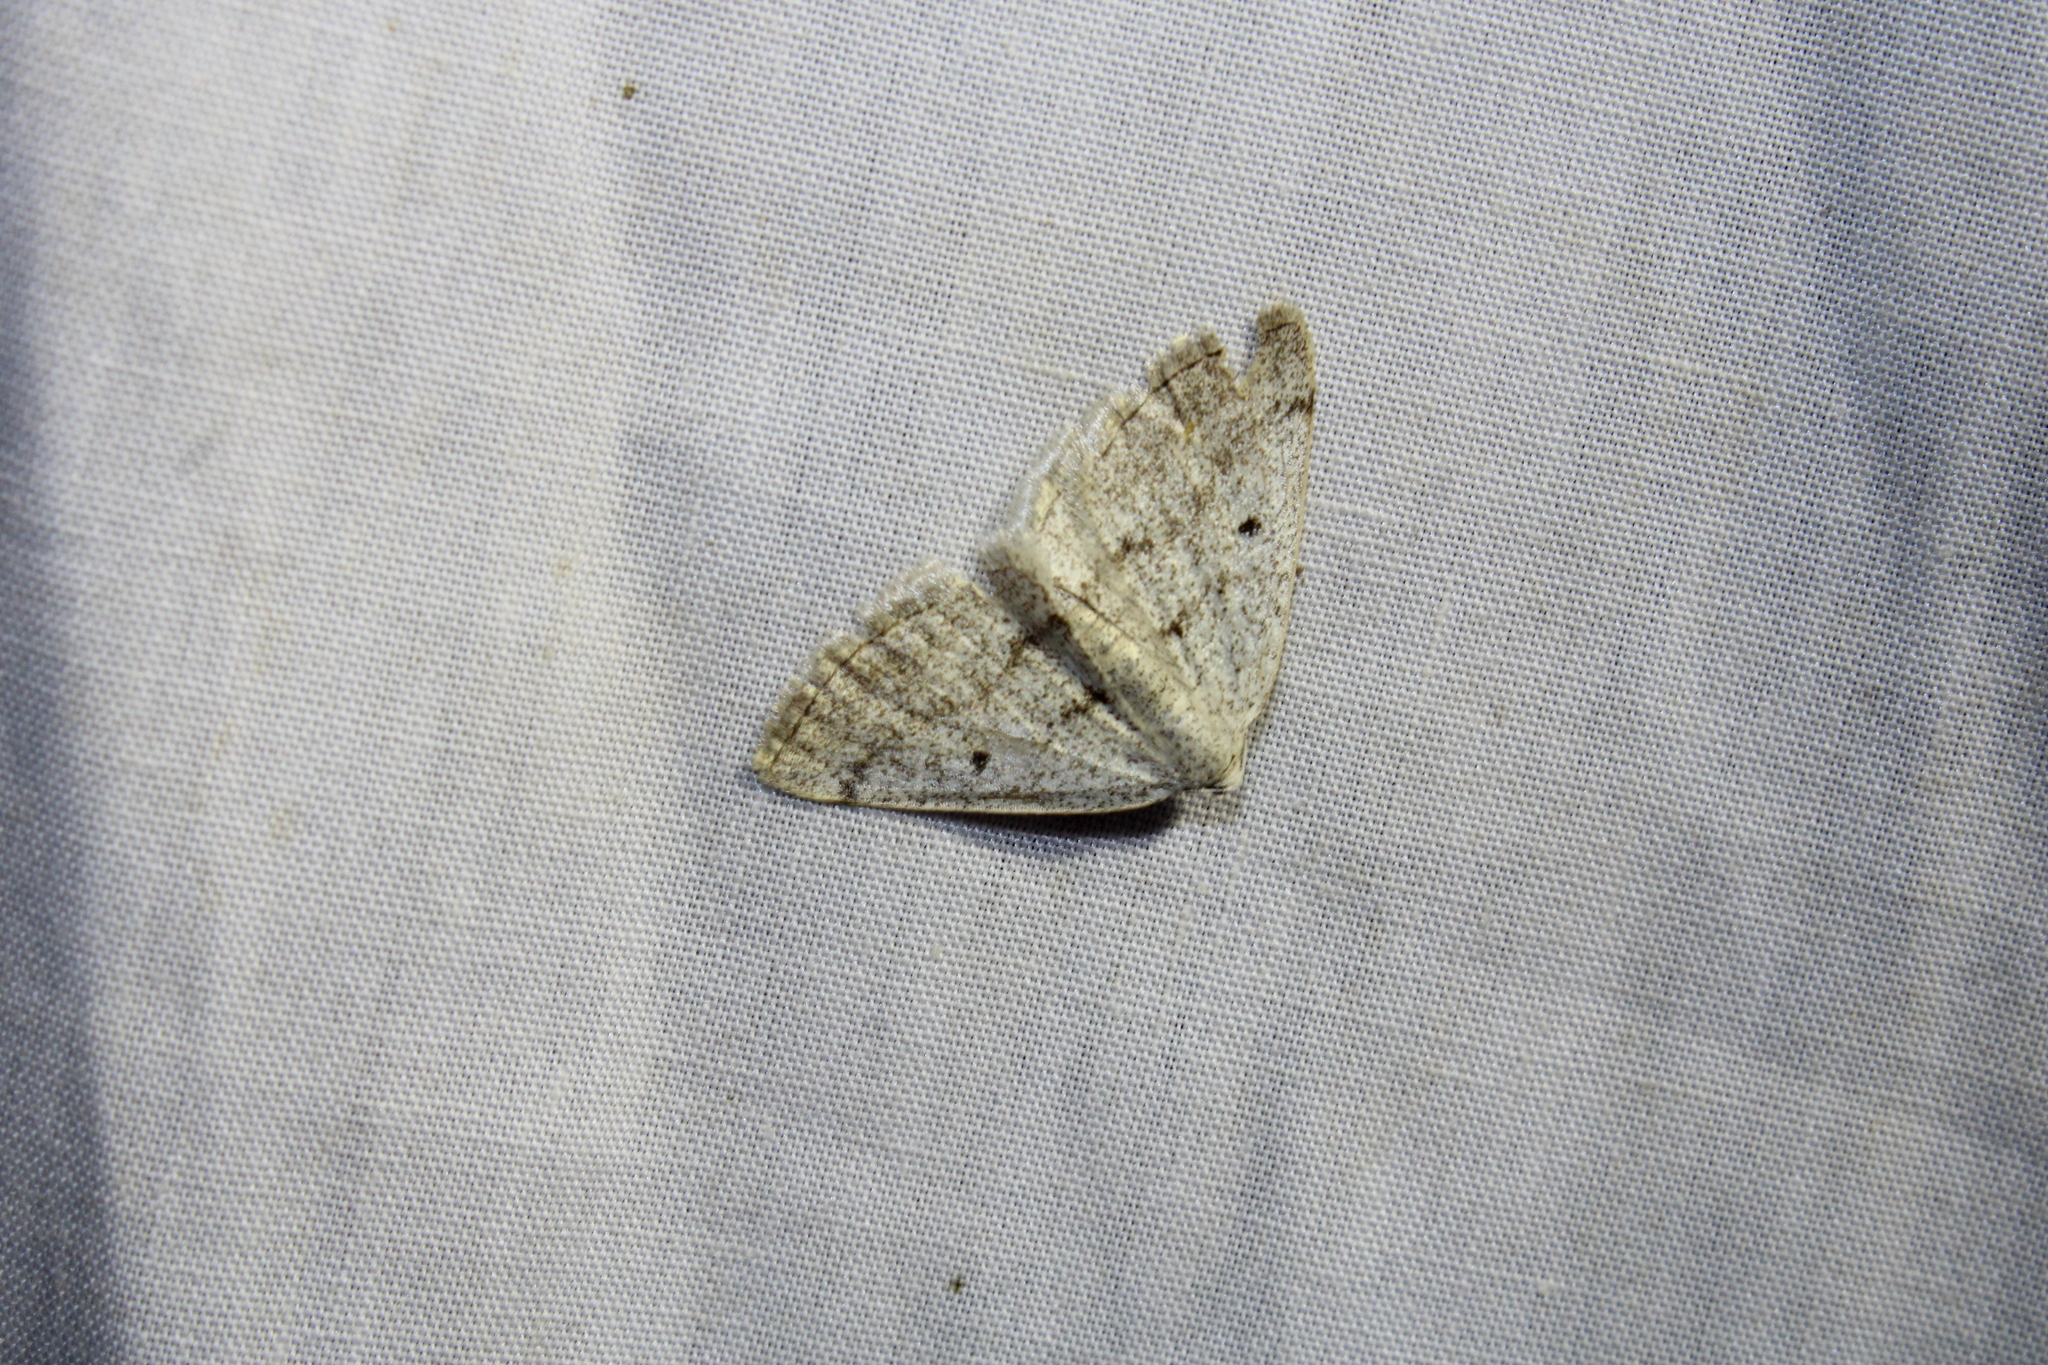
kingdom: Animalia
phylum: Arthropoda
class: Insecta
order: Lepidoptera
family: Geometridae
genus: Lomographa
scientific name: Lomographa glomeraria
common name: Gray spring moth
